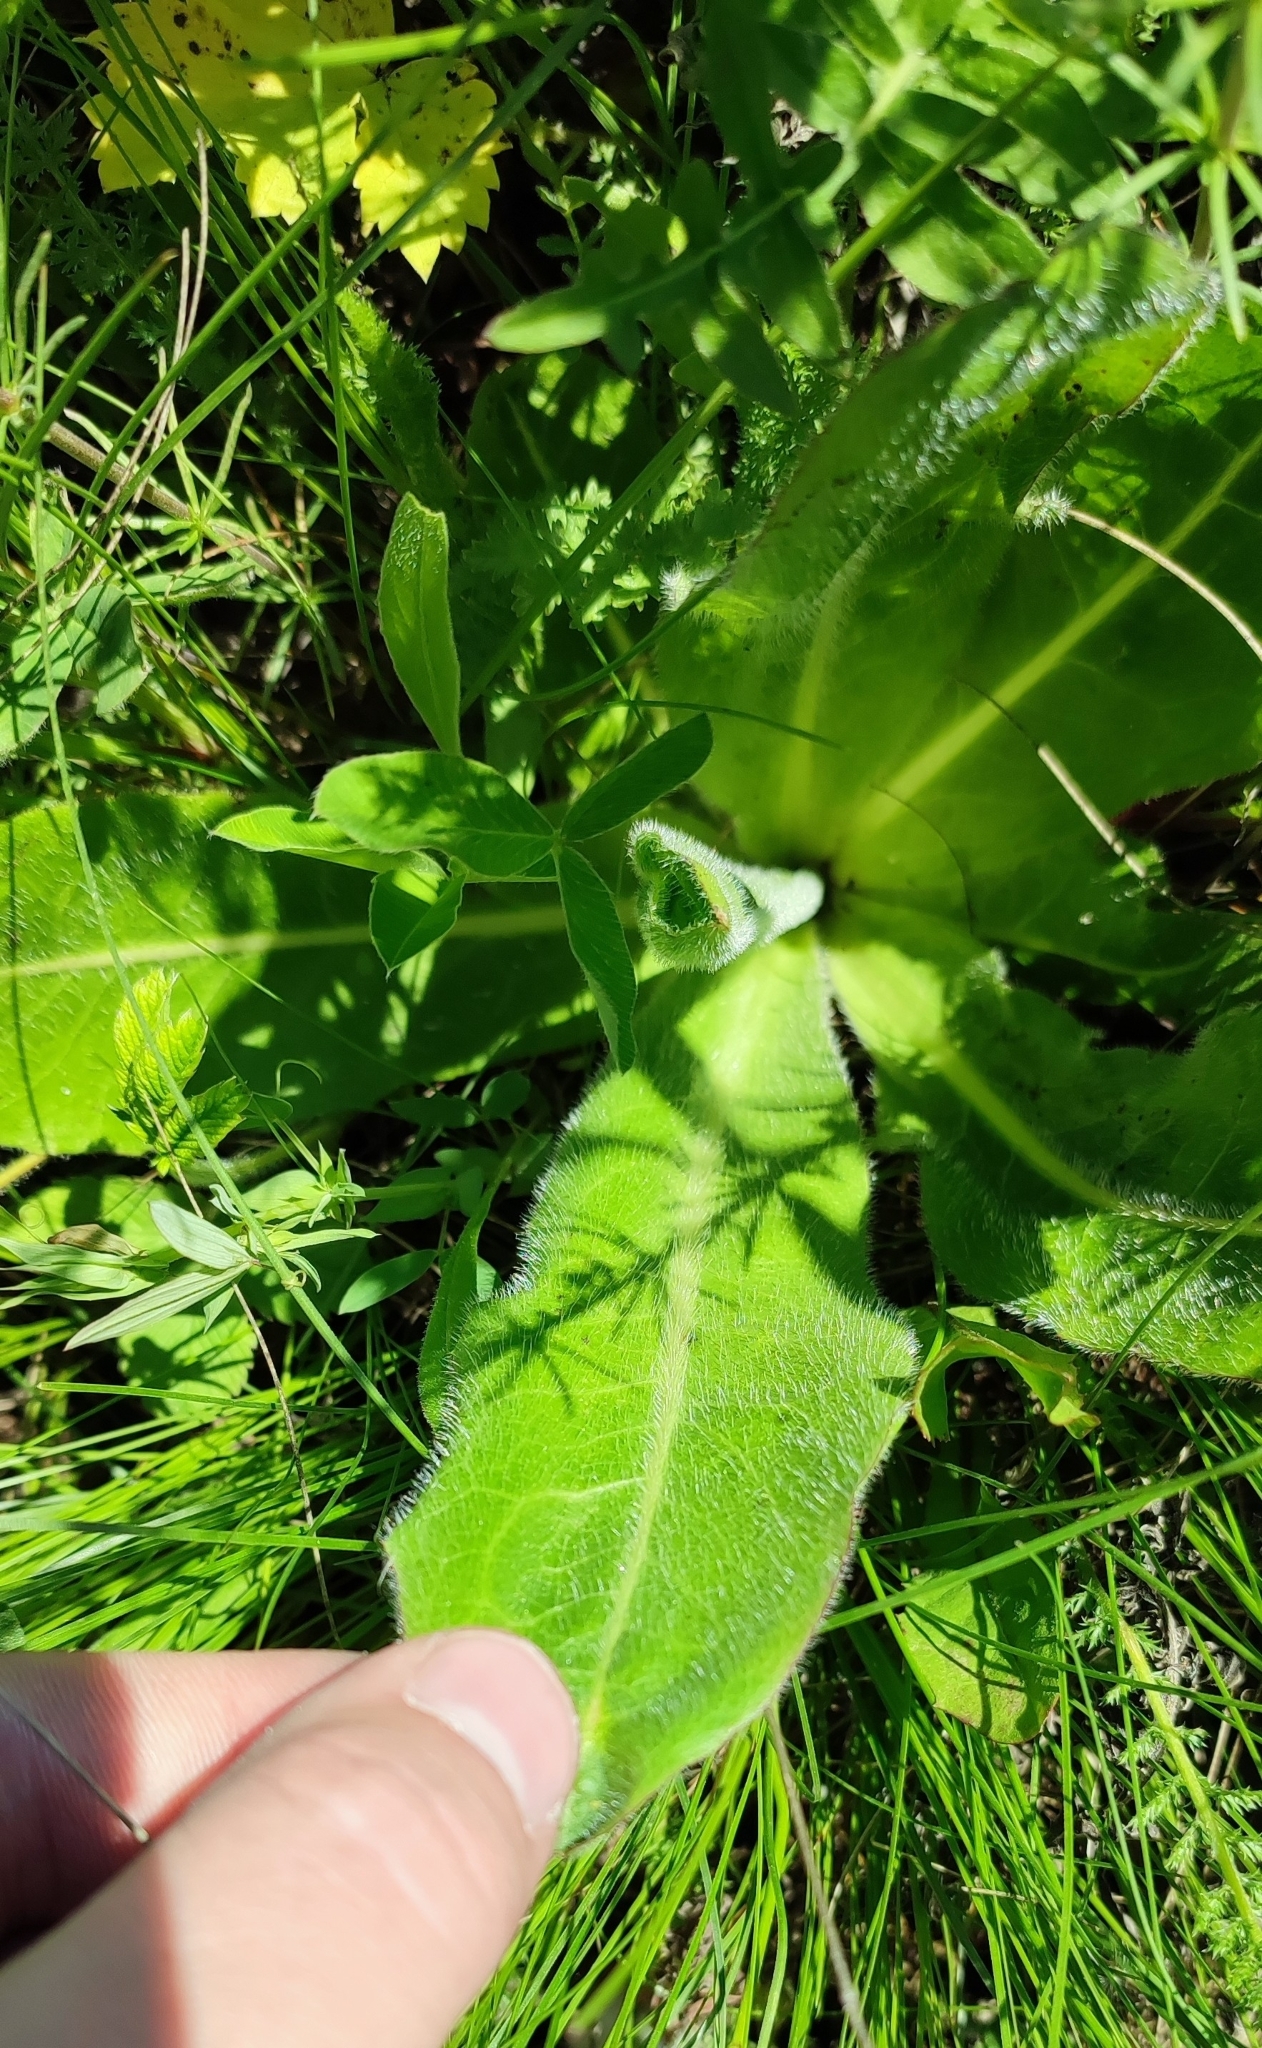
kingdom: Plantae
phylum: Tracheophyta
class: Magnoliopsida
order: Asterales
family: Asteraceae
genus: Trommsdorffia
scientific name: Trommsdorffia maculata
